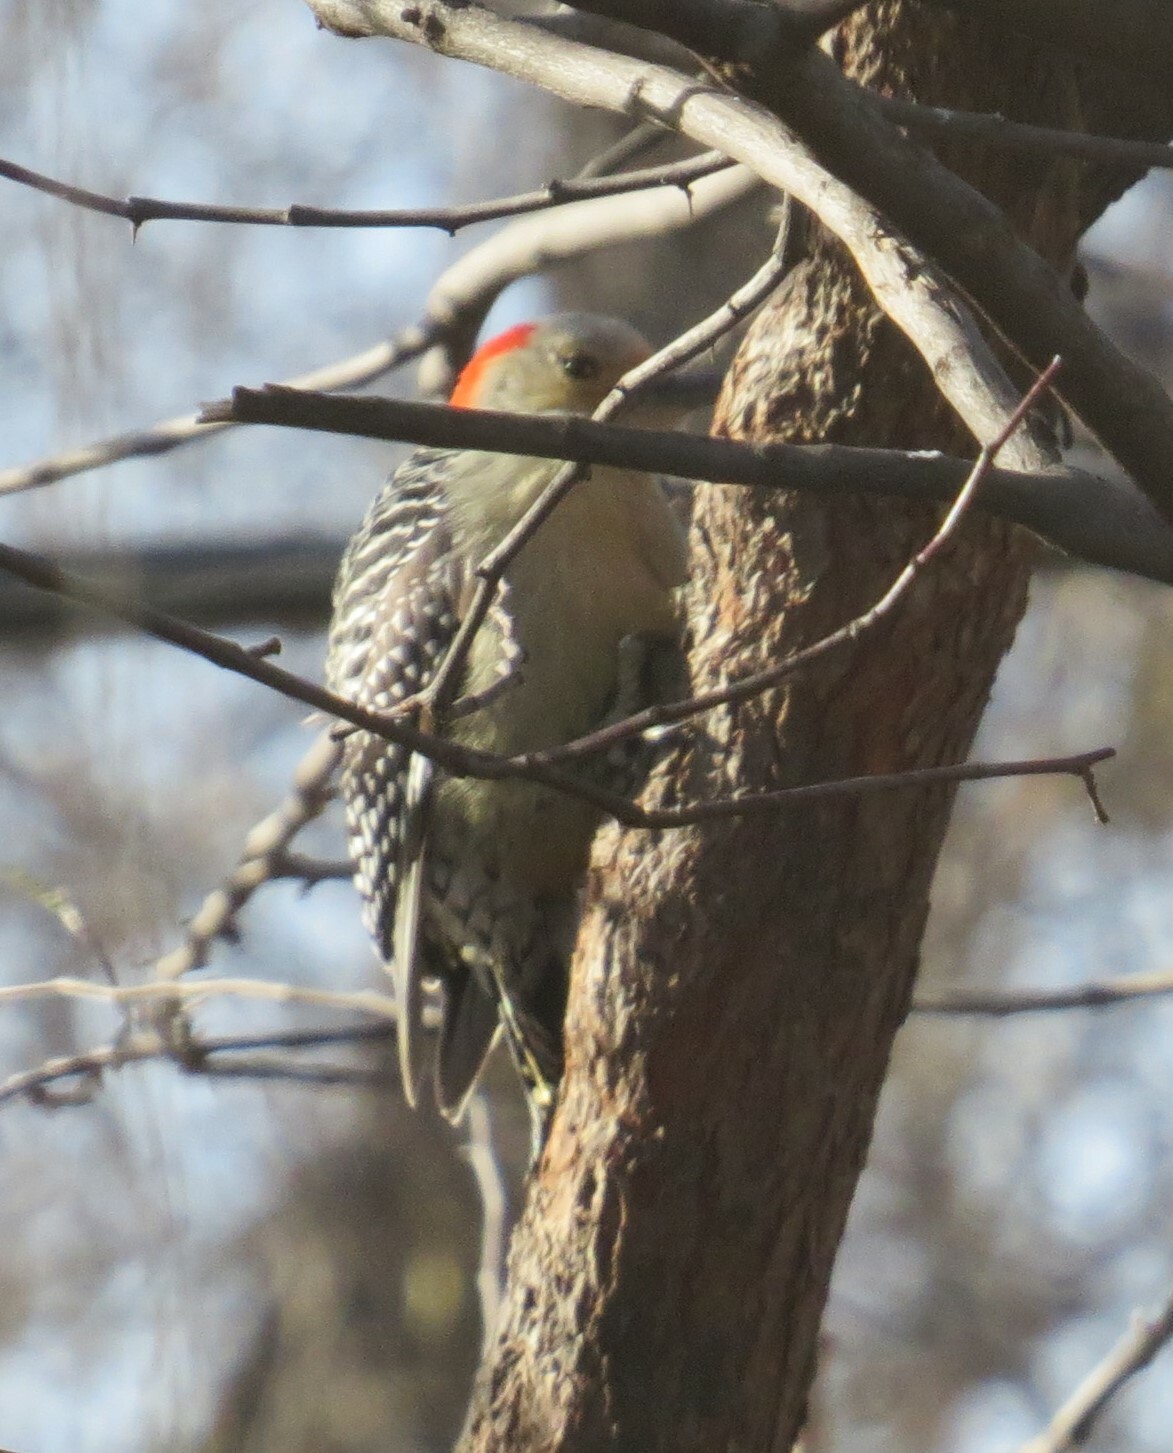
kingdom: Animalia
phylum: Chordata
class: Aves
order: Piciformes
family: Picidae
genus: Melanerpes
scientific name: Melanerpes carolinus
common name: Red-bellied woodpecker
